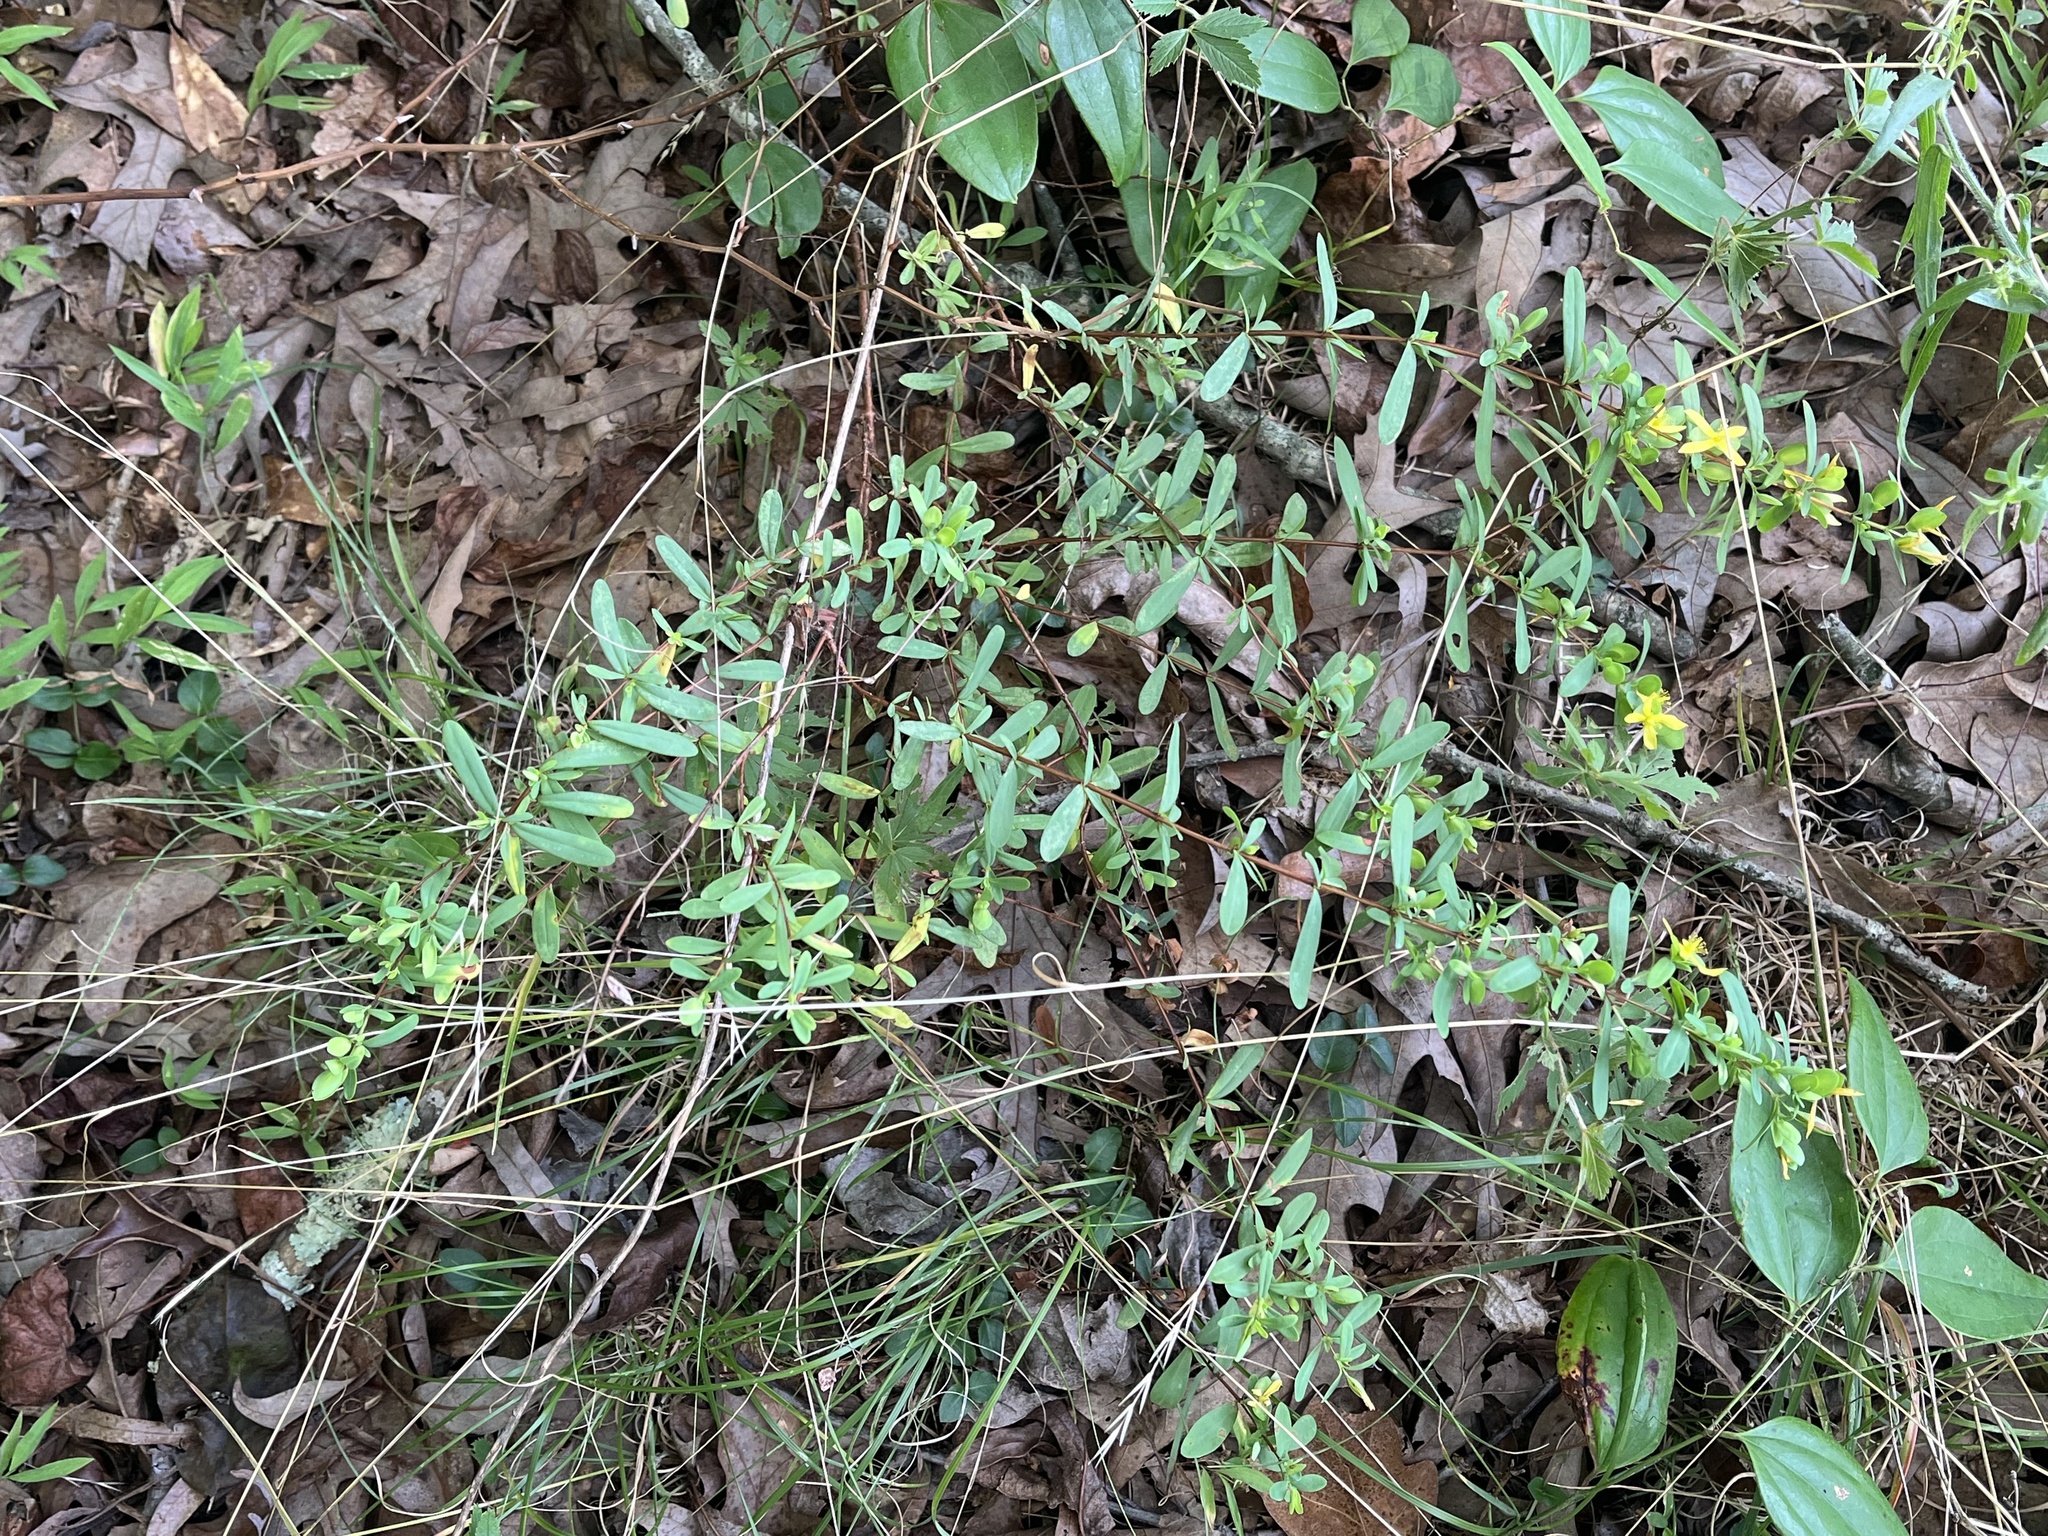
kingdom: Plantae
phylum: Tracheophyta
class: Magnoliopsida
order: Malpighiales
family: Hypericaceae
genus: Hypericum
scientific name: Hypericum hypericoides
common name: St. andrew's cross
